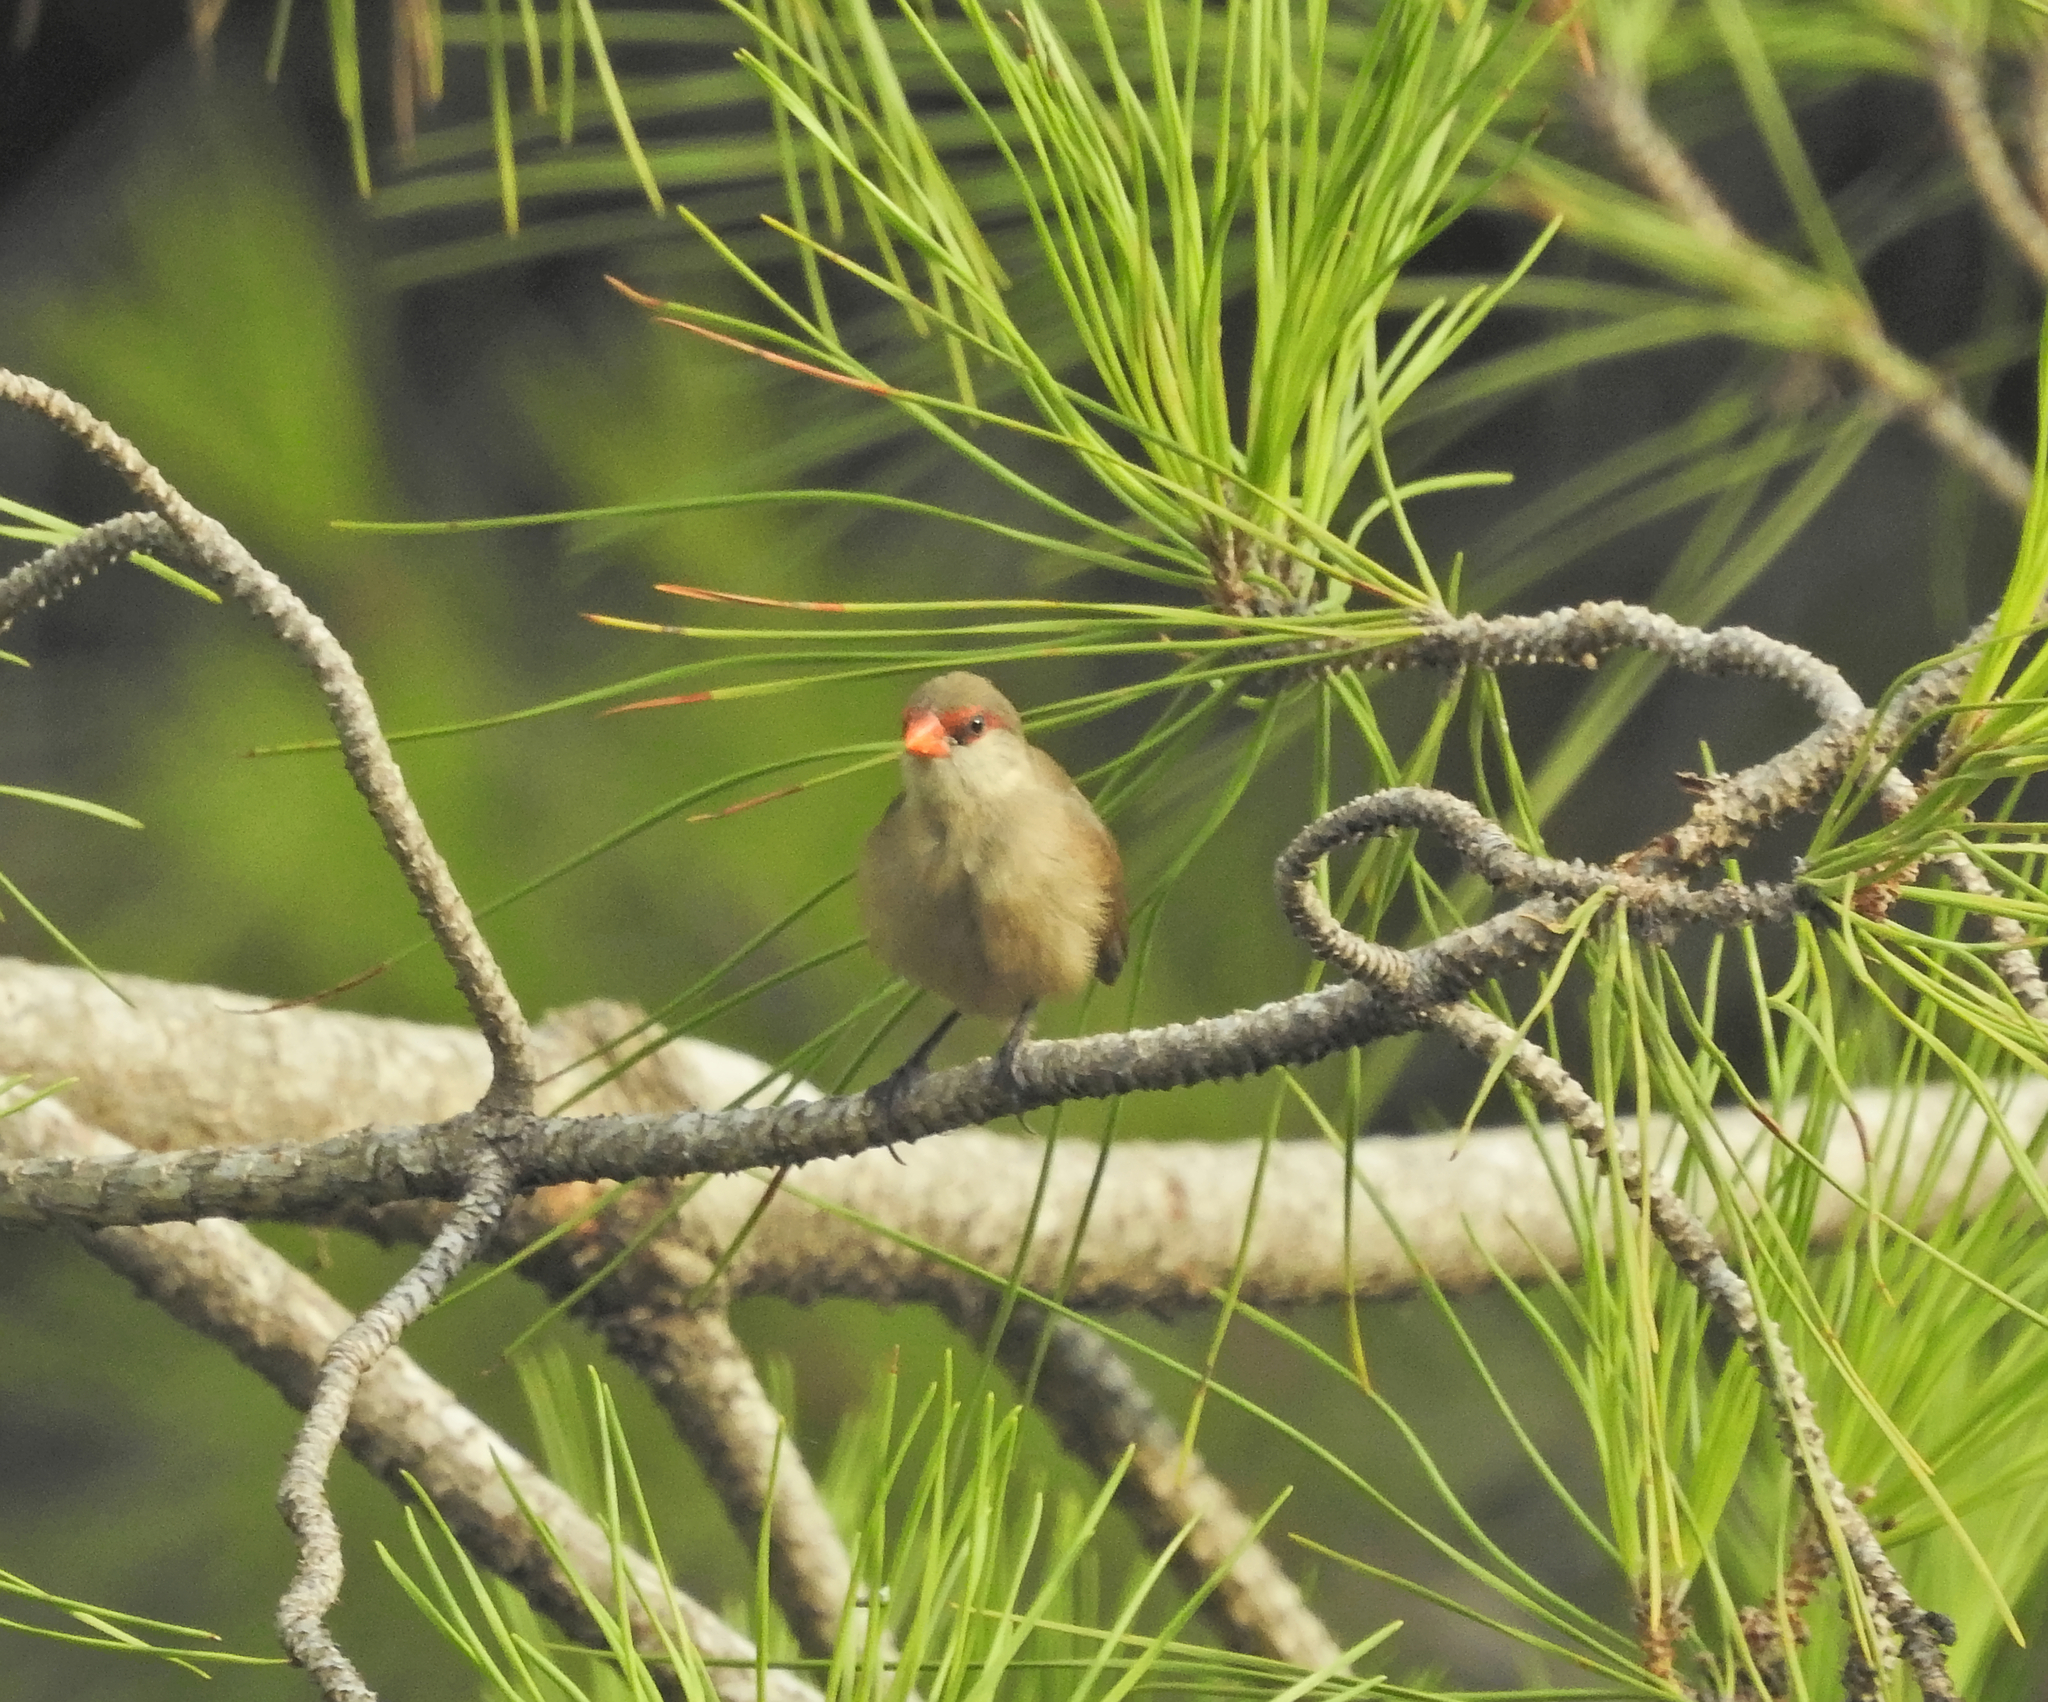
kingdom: Animalia
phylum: Chordata
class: Aves
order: Passeriformes
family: Estrildidae
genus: Estrilda
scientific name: Estrilda astrild
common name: Common waxbill
